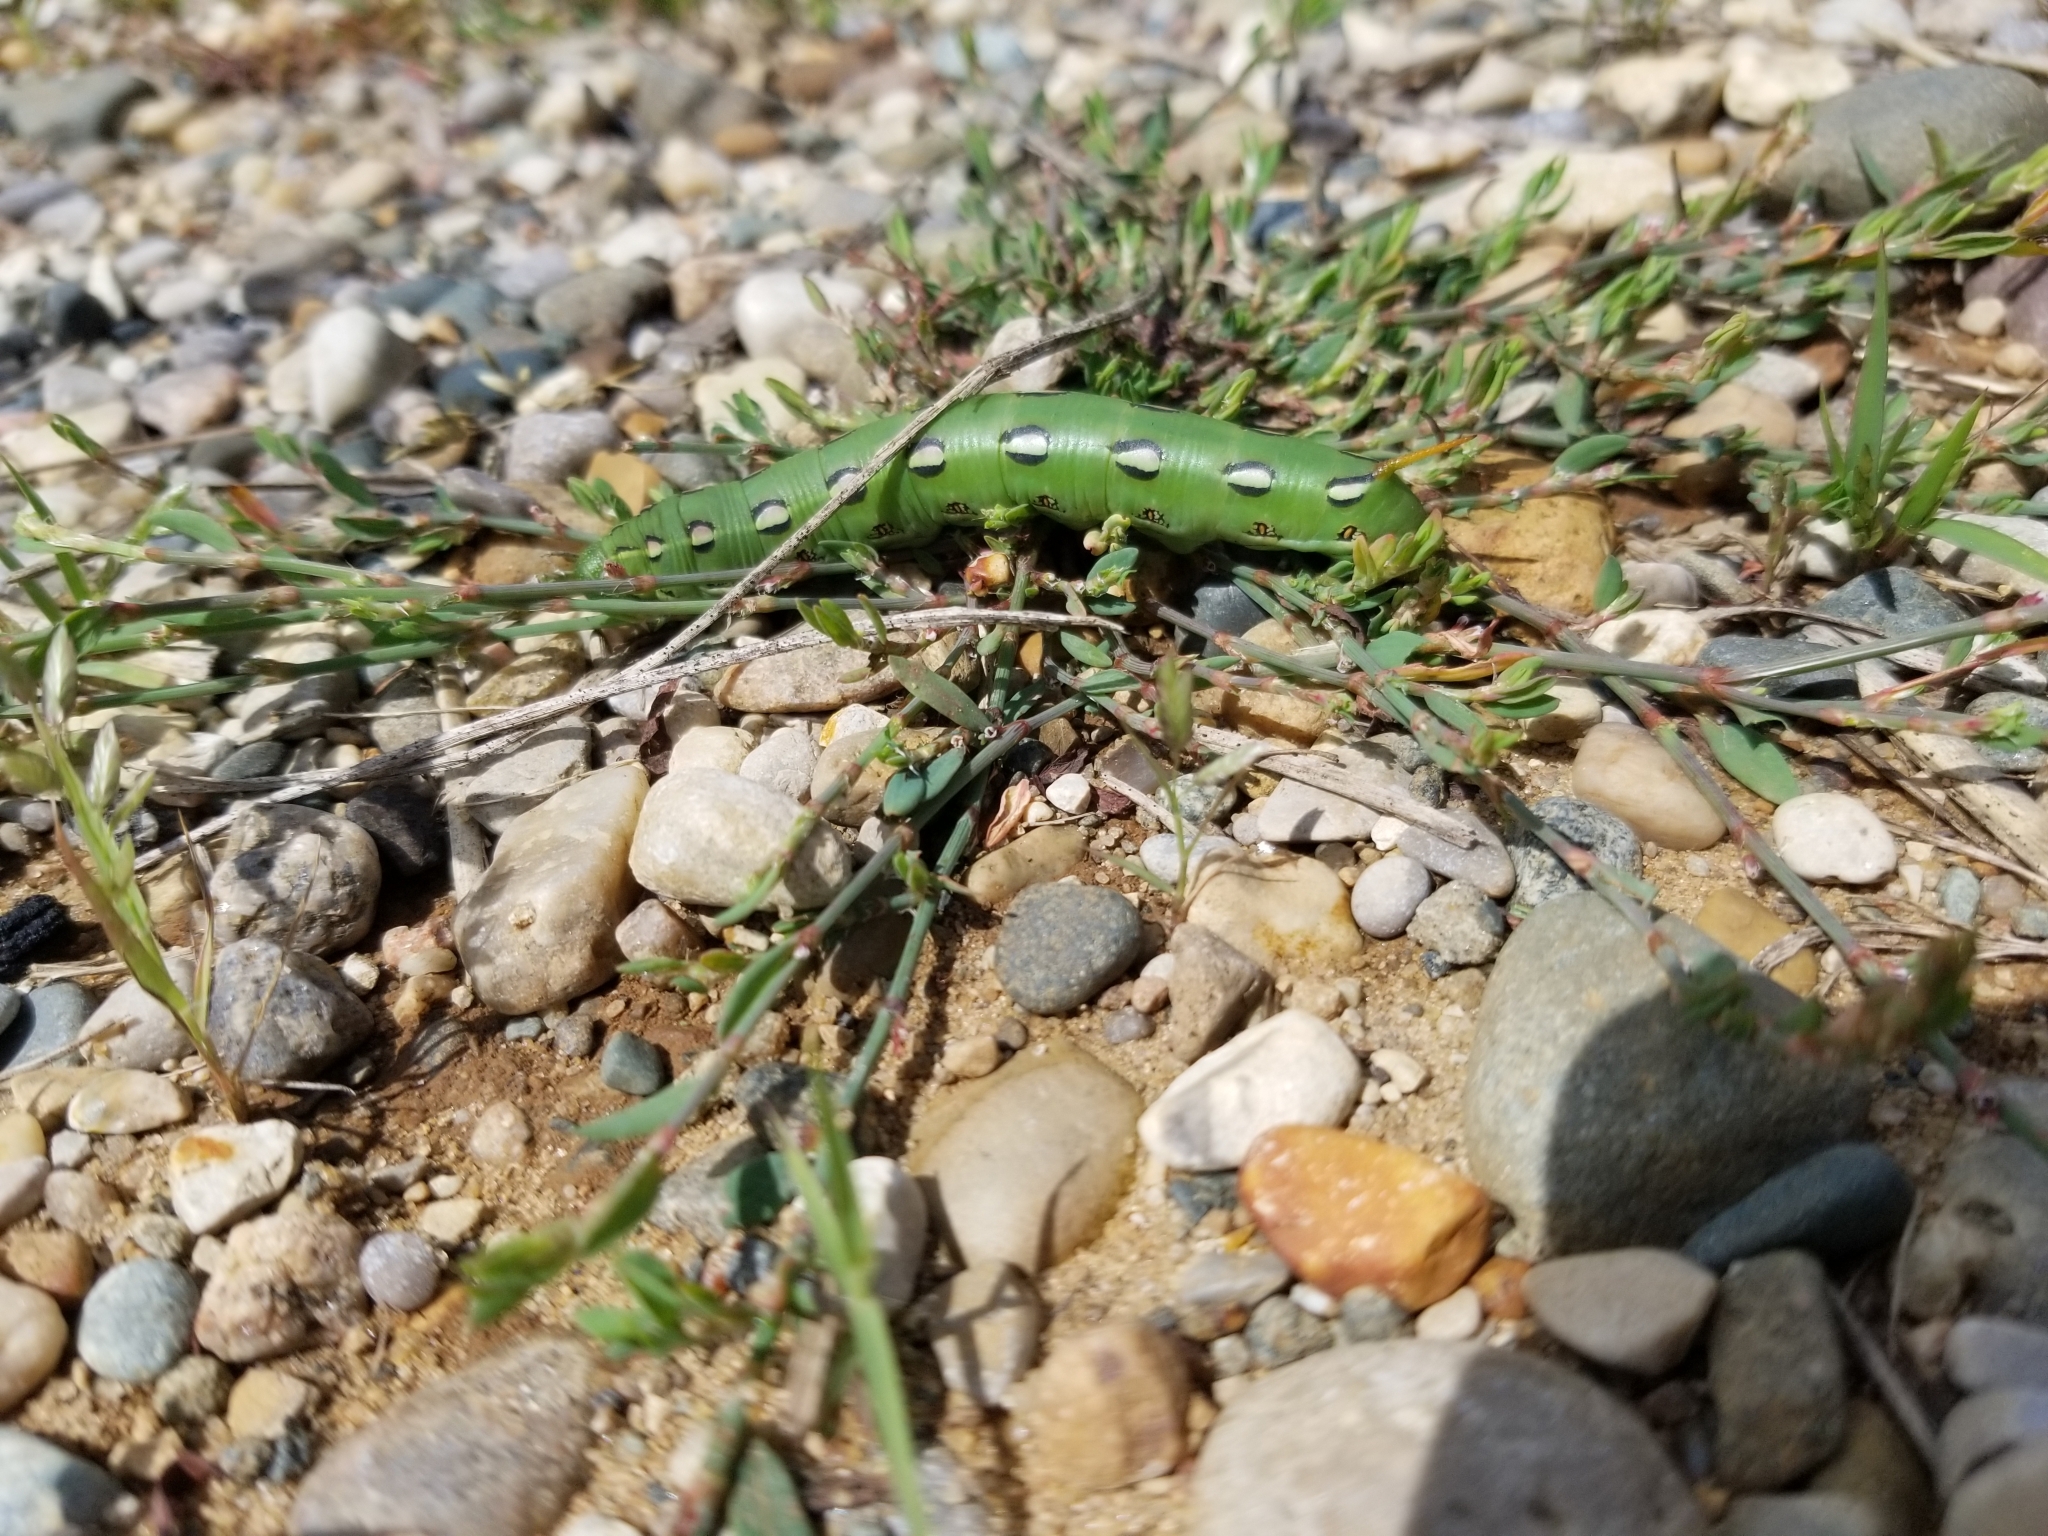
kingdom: Animalia
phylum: Arthropoda
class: Insecta
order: Lepidoptera
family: Sphingidae
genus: Hyles
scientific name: Hyles lineata
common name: White-lined sphinx
